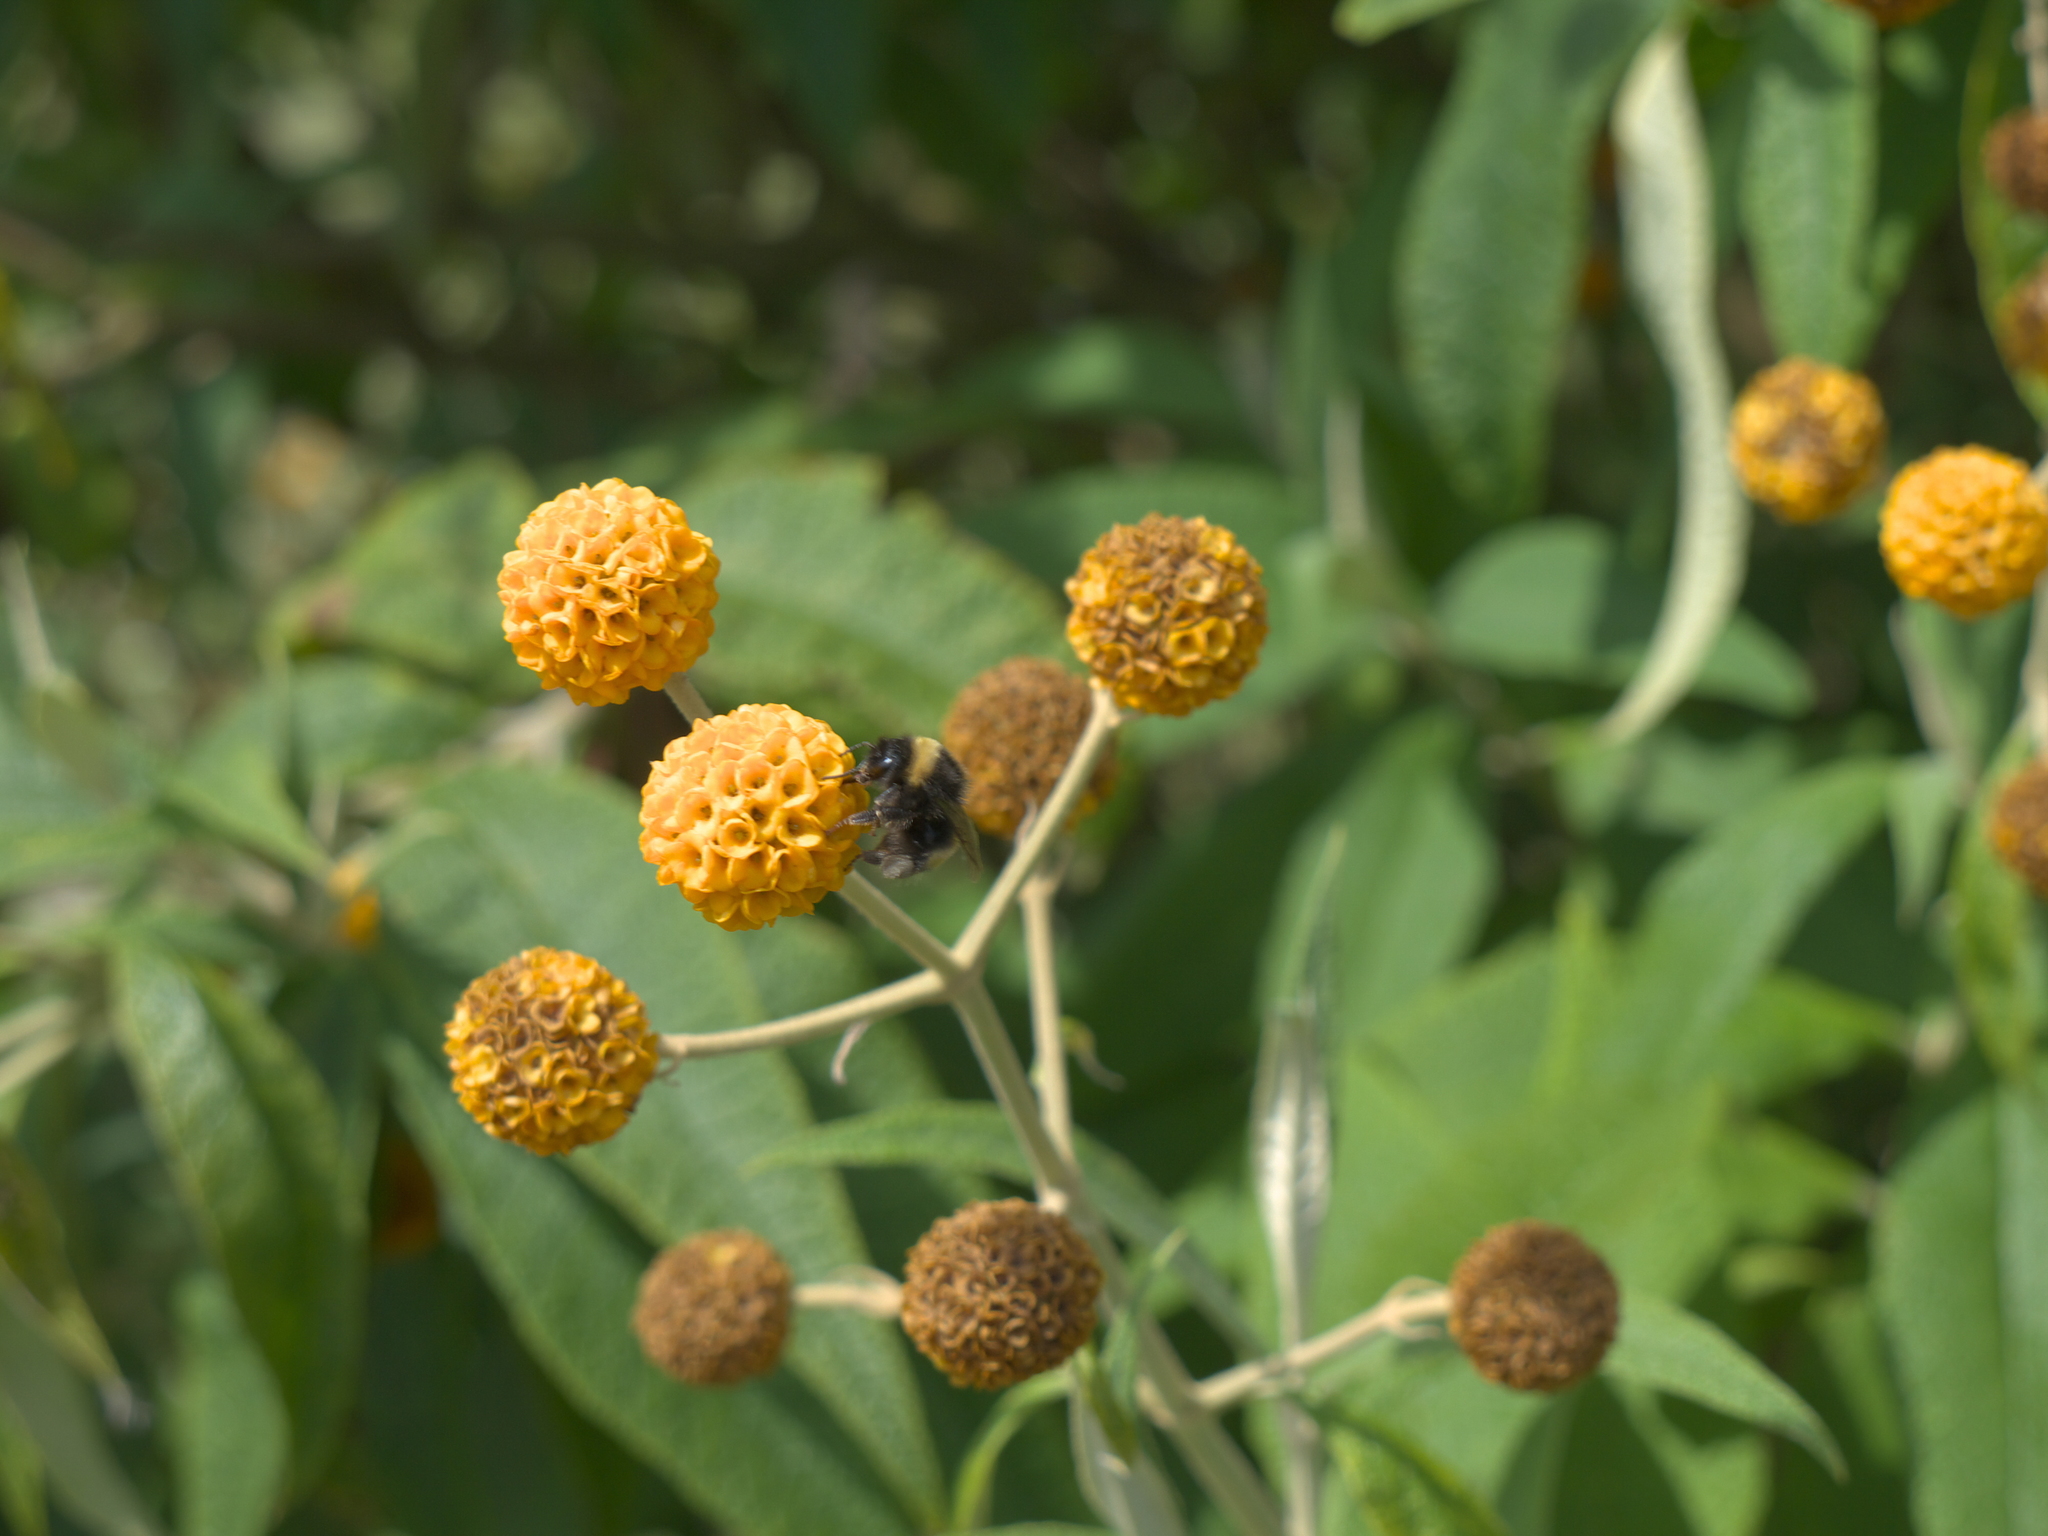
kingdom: Plantae
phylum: Tracheophyta
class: Magnoliopsida
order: Lamiales
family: Scrophulariaceae
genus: Buddleja
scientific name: Buddleja globosa
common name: Orange-ball-tree
